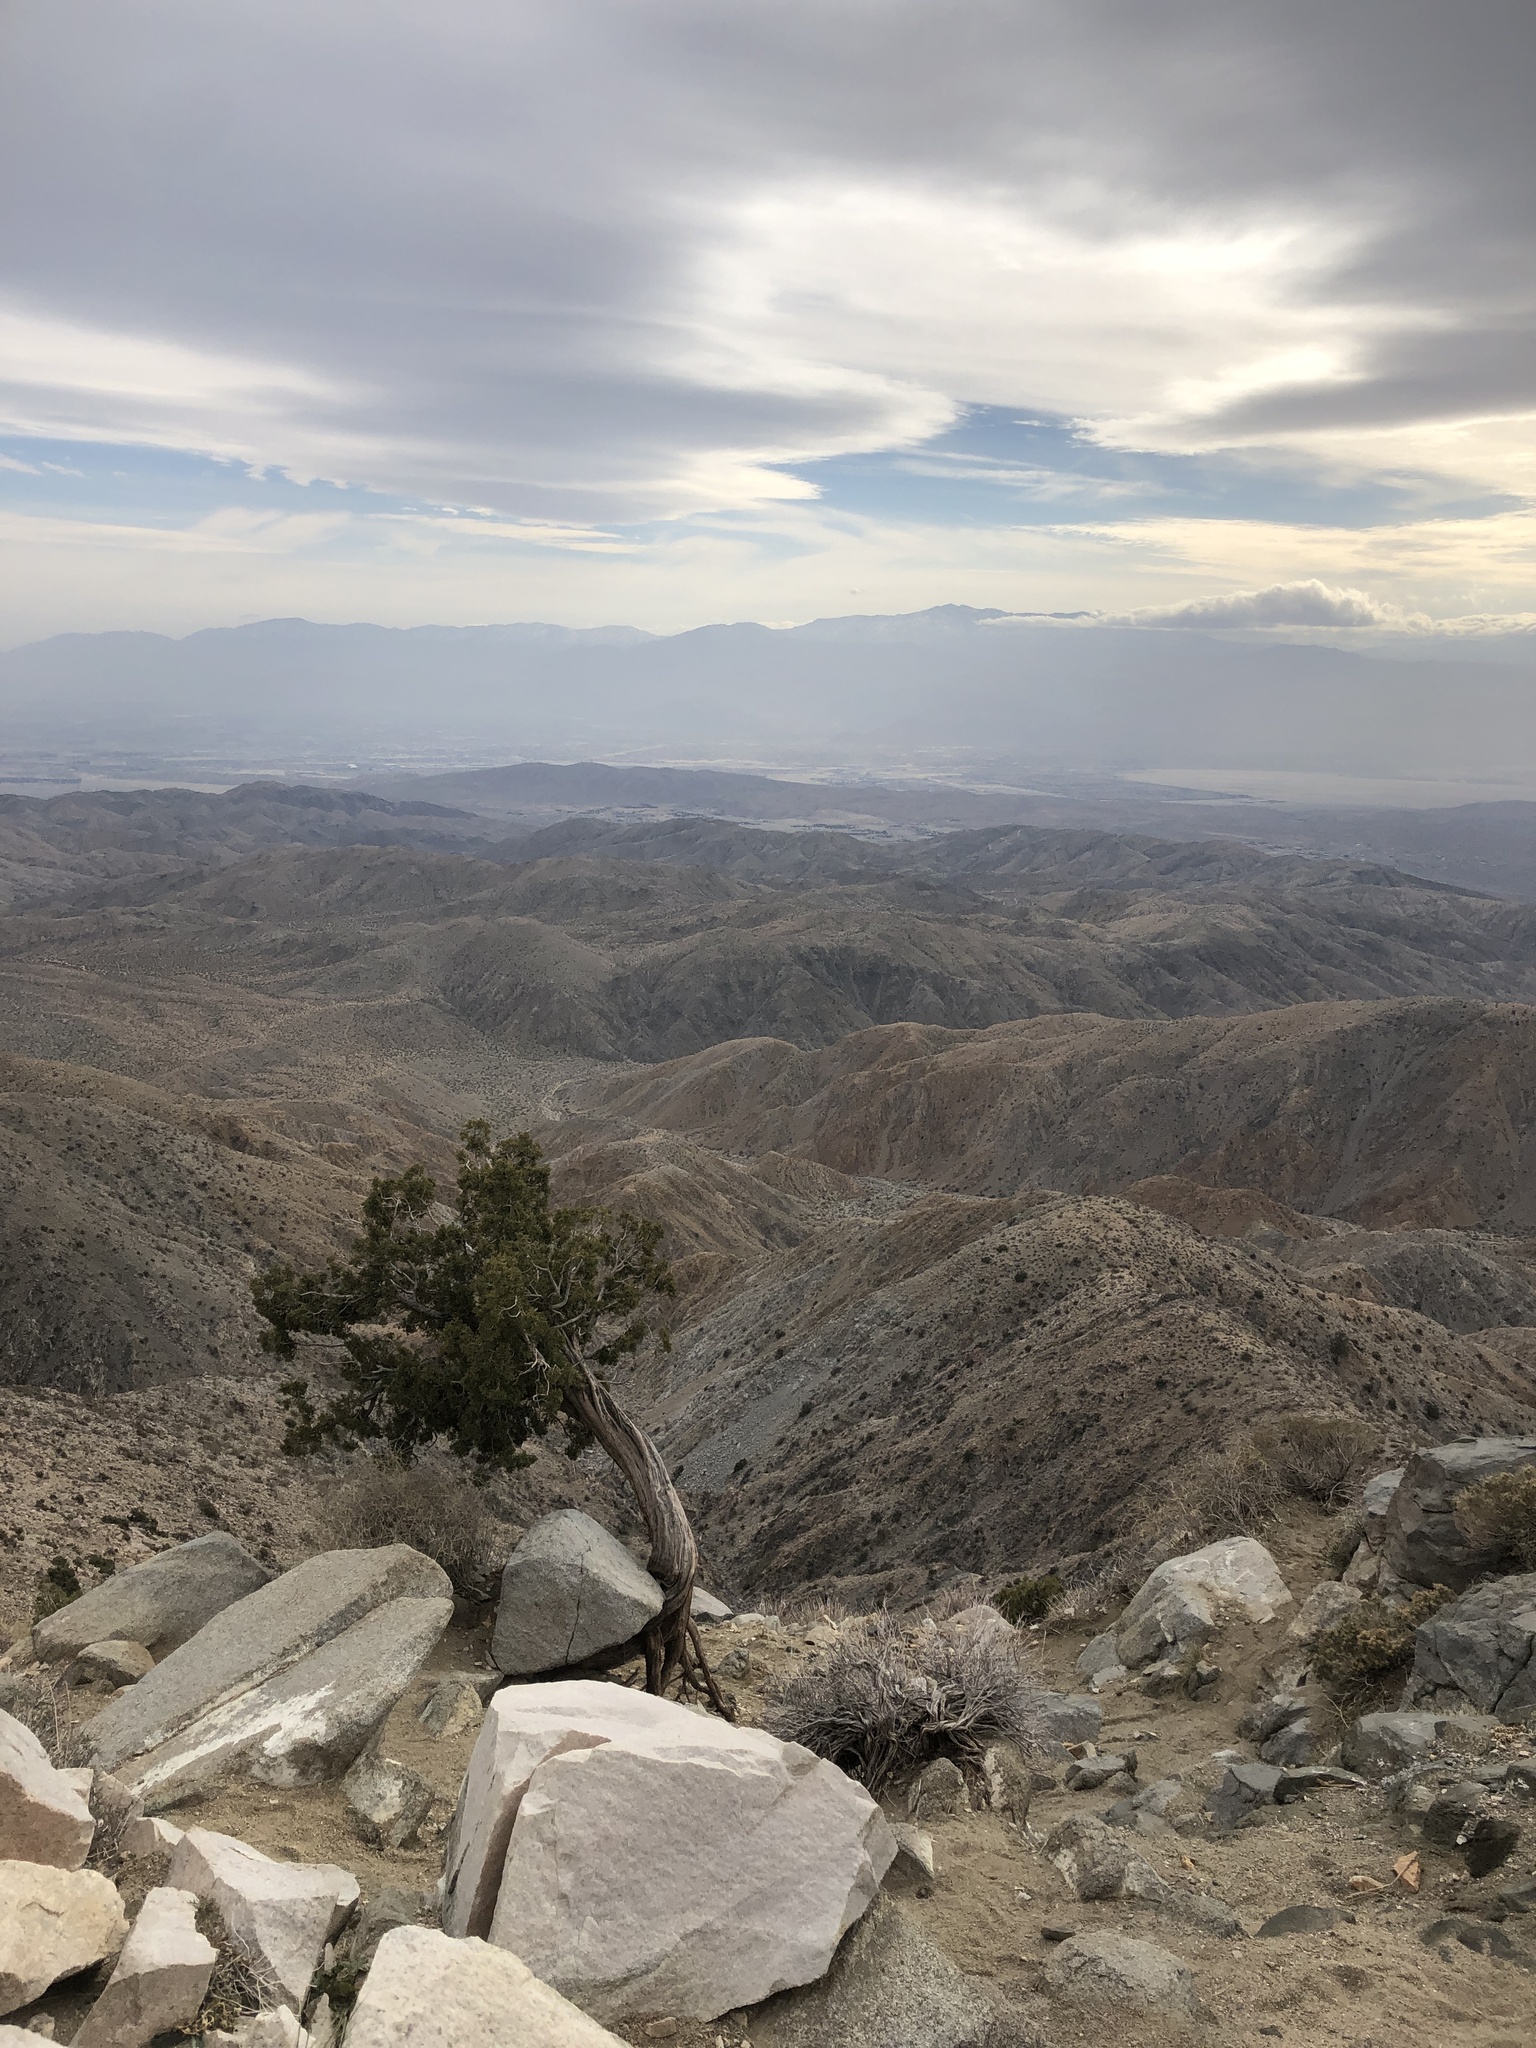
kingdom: Plantae
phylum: Tracheophyta
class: Pinopsida
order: Pinales
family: Cupressaceae
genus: Juniperus
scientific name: Juniperus californica
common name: California juniper
